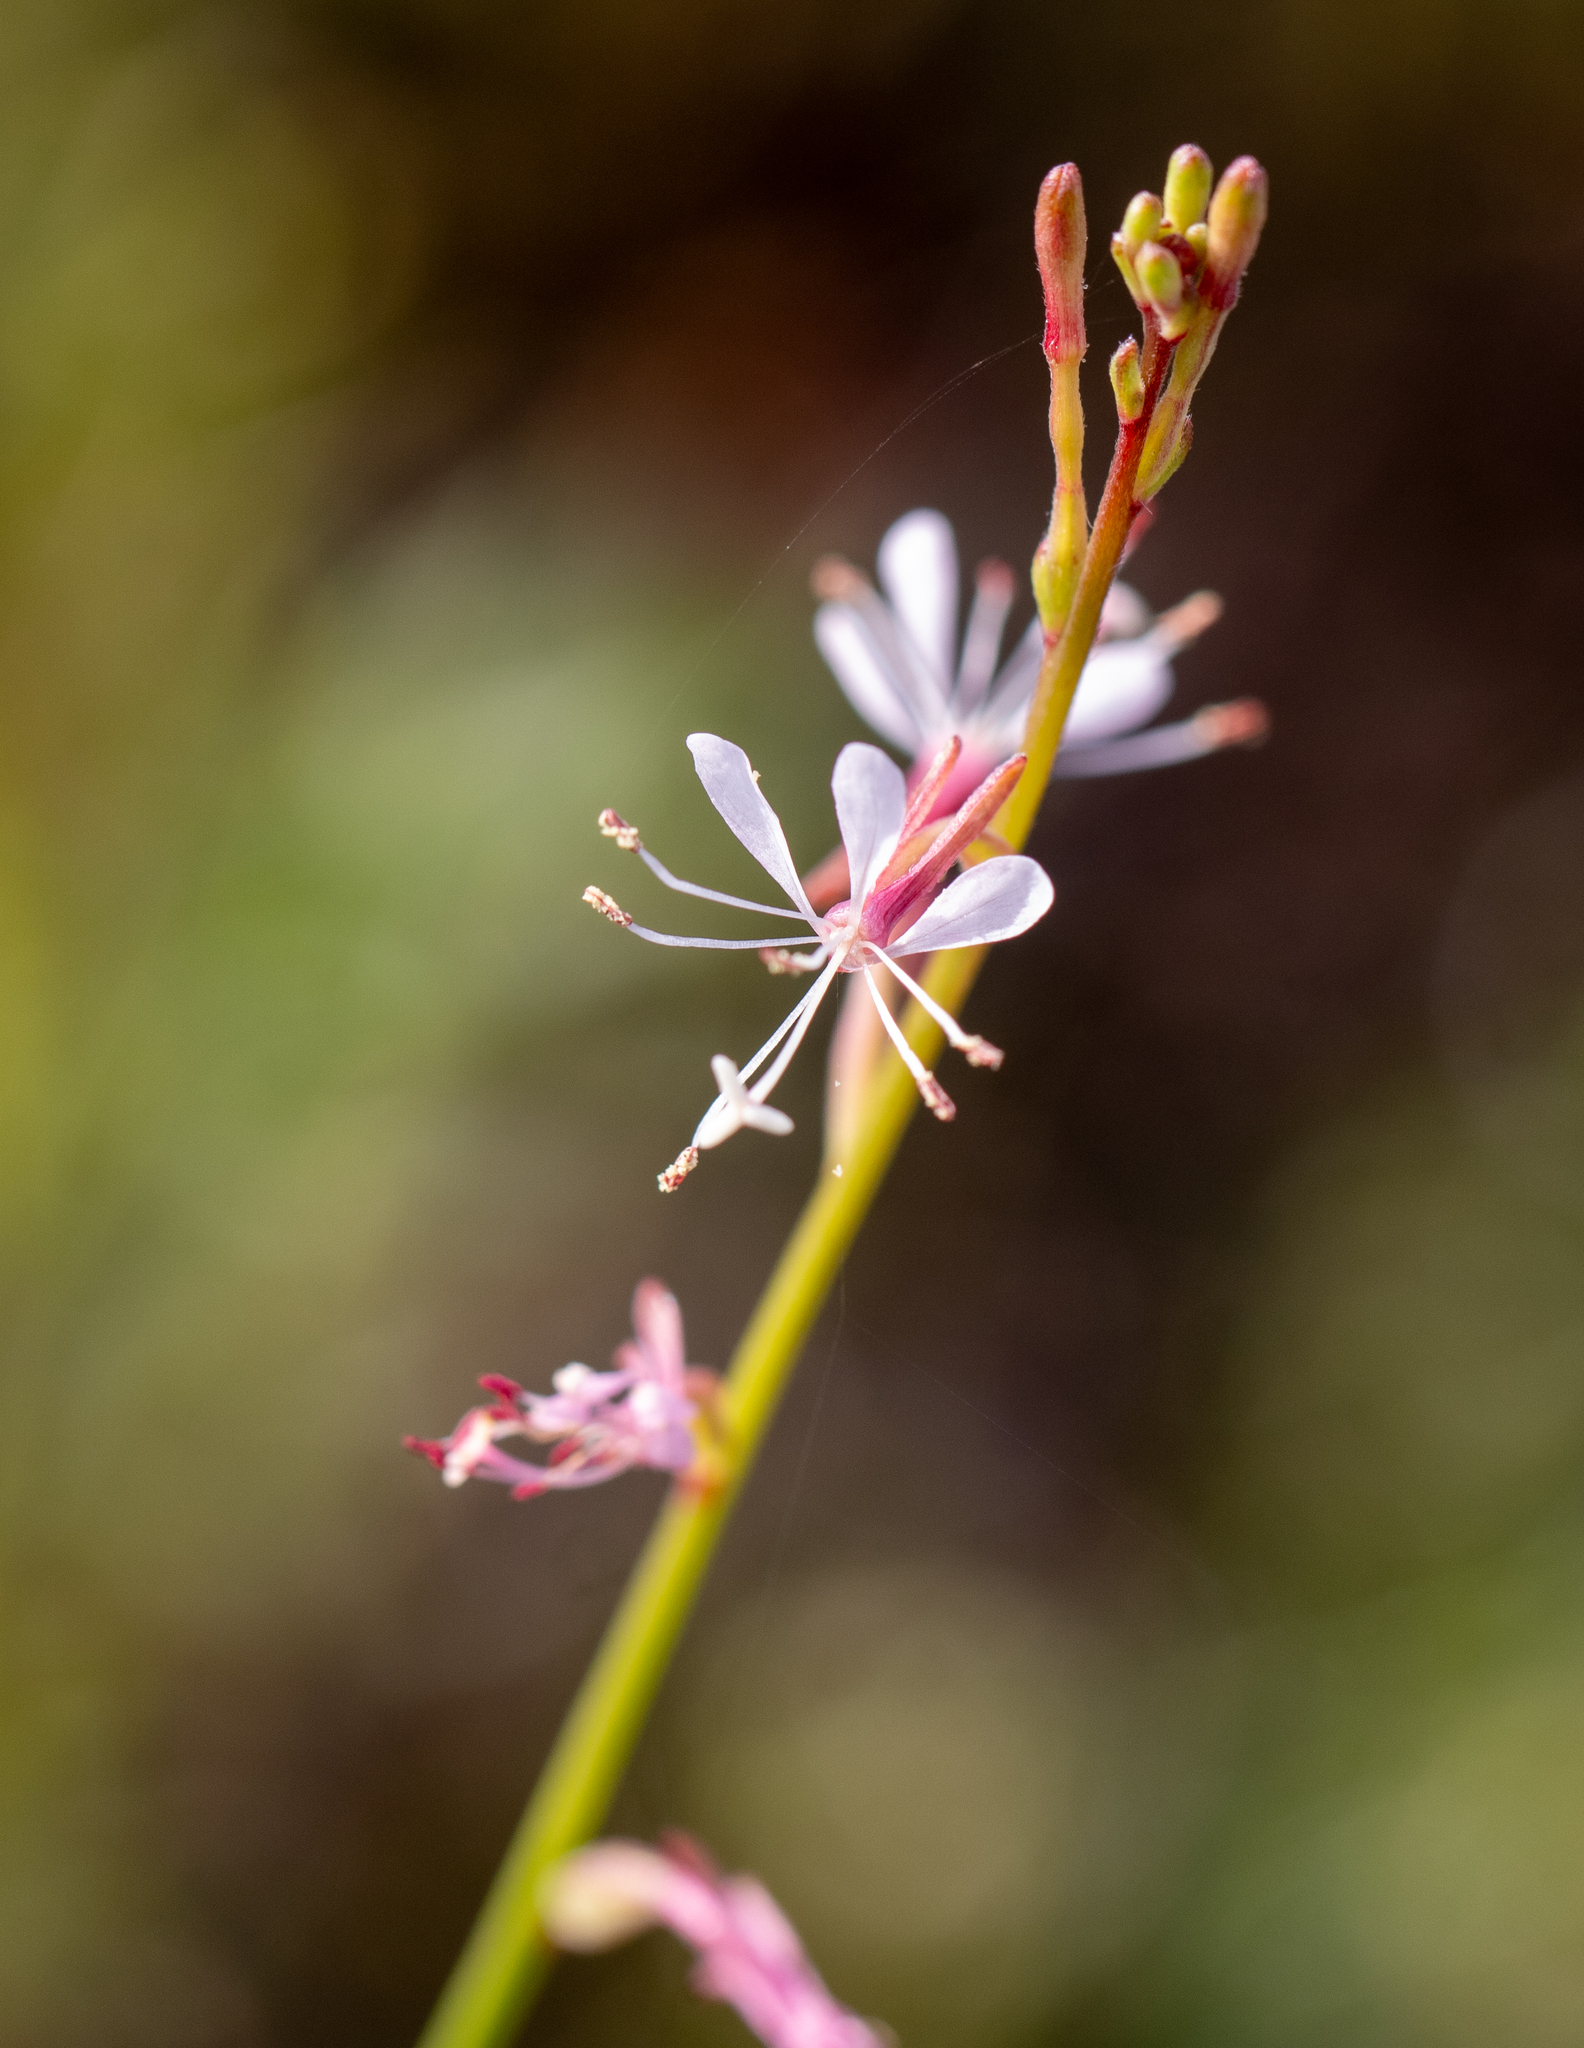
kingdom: Plantae
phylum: Tracheophyta
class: Magnoliopsida
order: Myrtales
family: Onagraceae
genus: Oenothera
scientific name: Oenothera simulans
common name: Southern beeblossom
